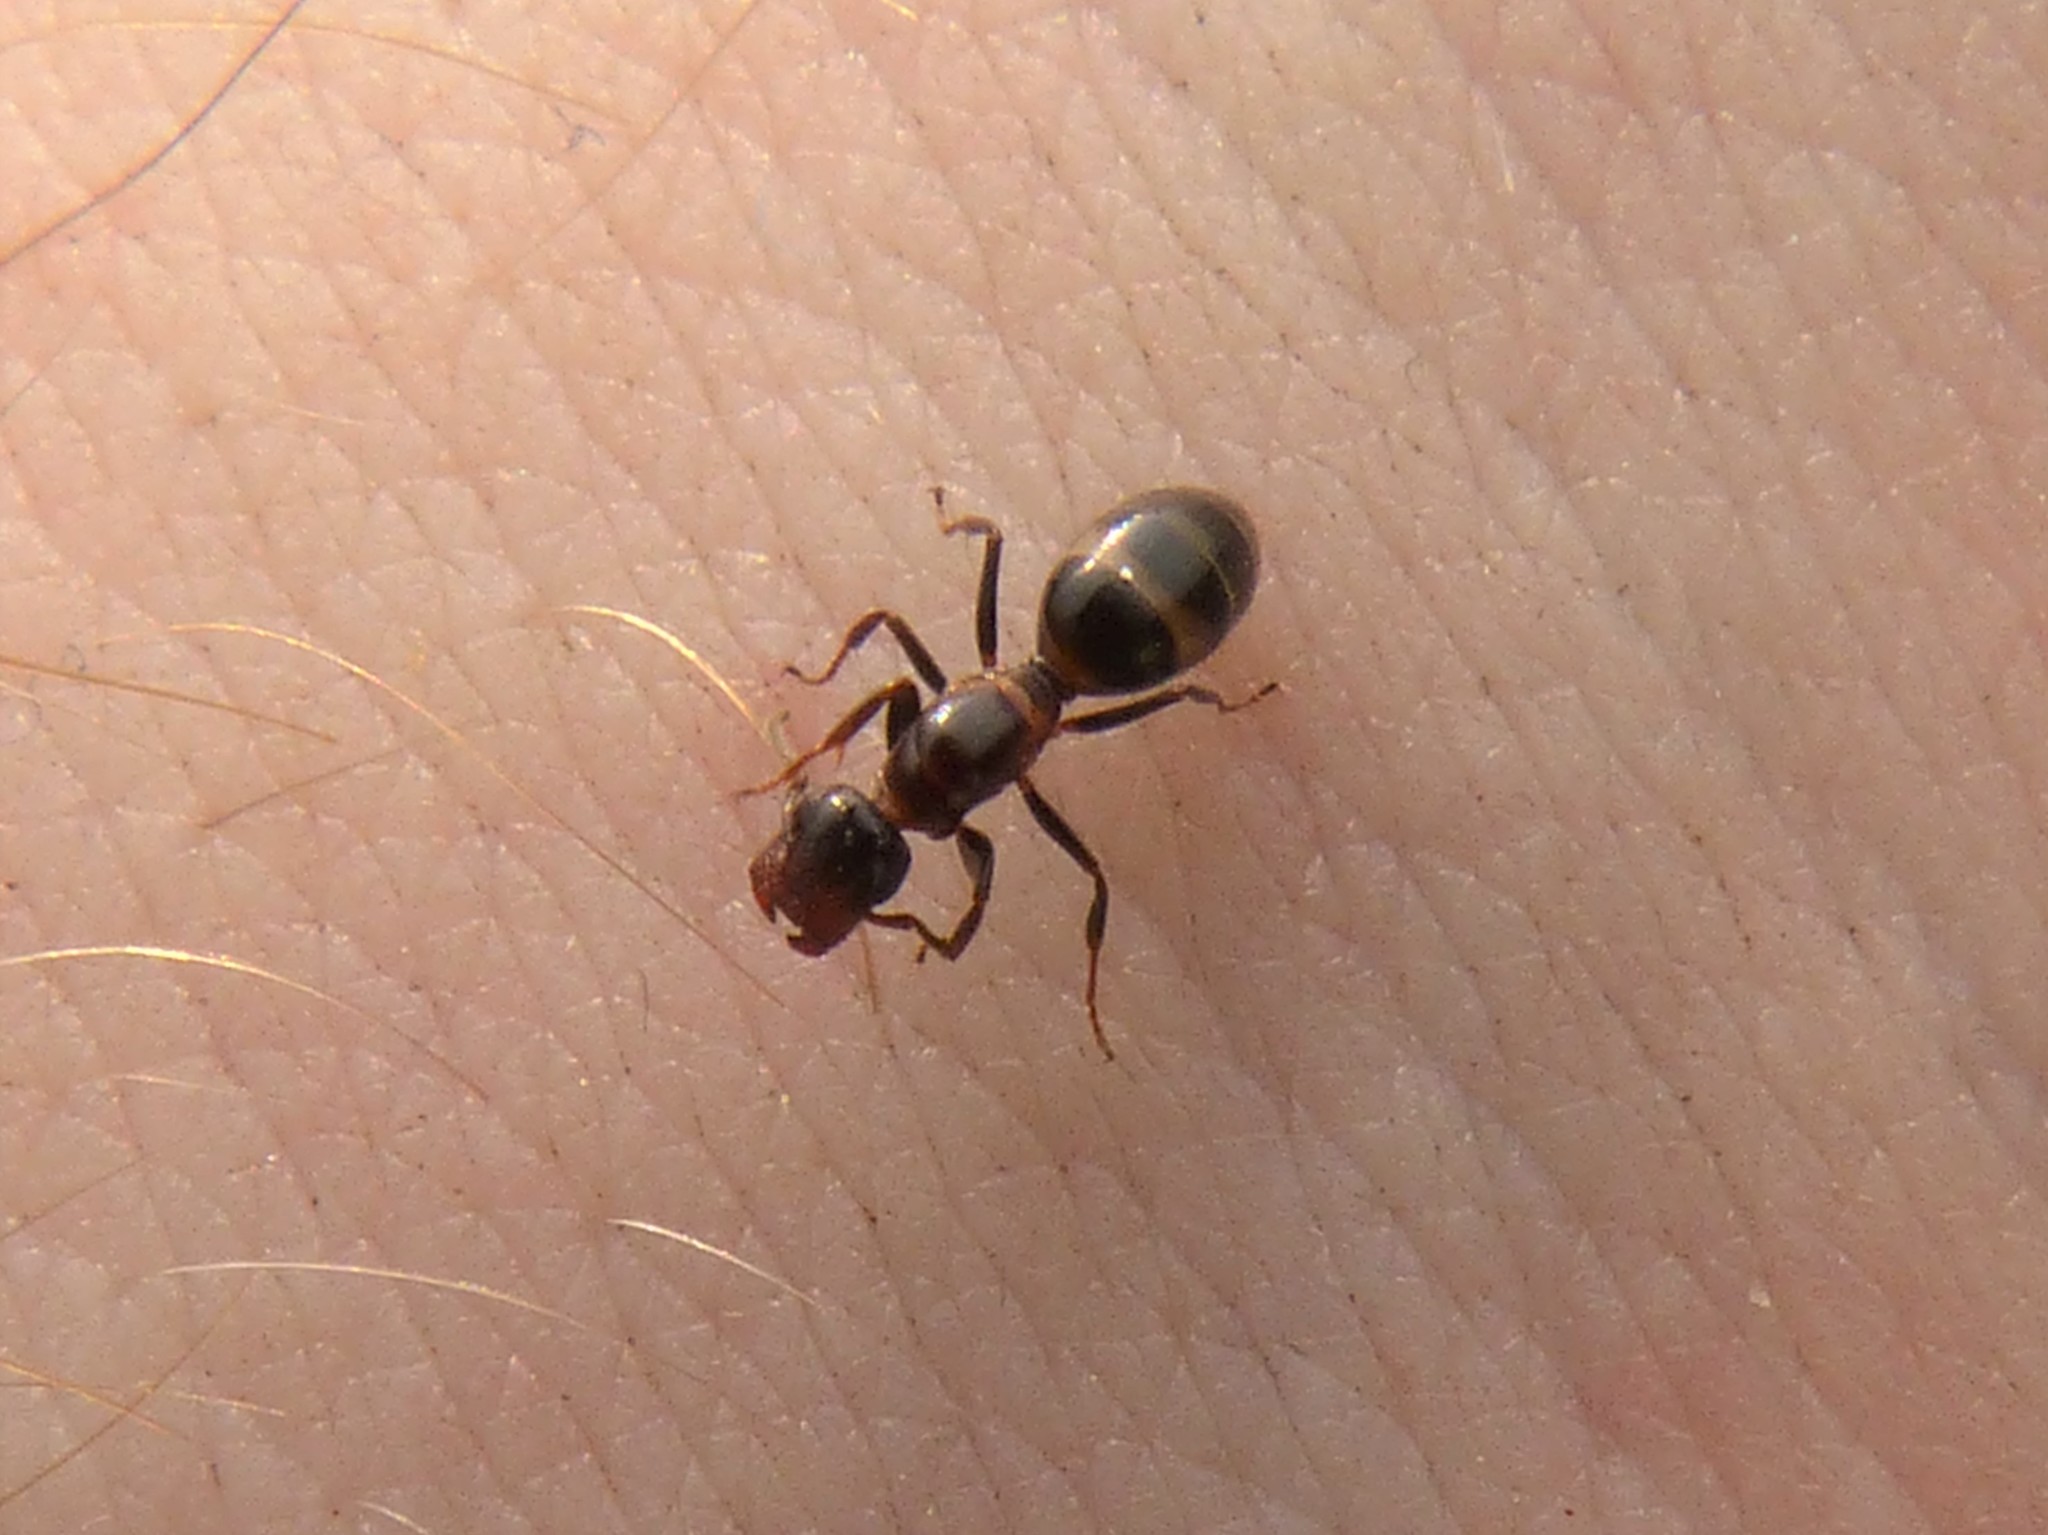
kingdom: Animalia
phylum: Arthropoda
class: Insecta
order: Hymenoptera
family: Formicidae
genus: Camponotus
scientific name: Camponotus truncatus
